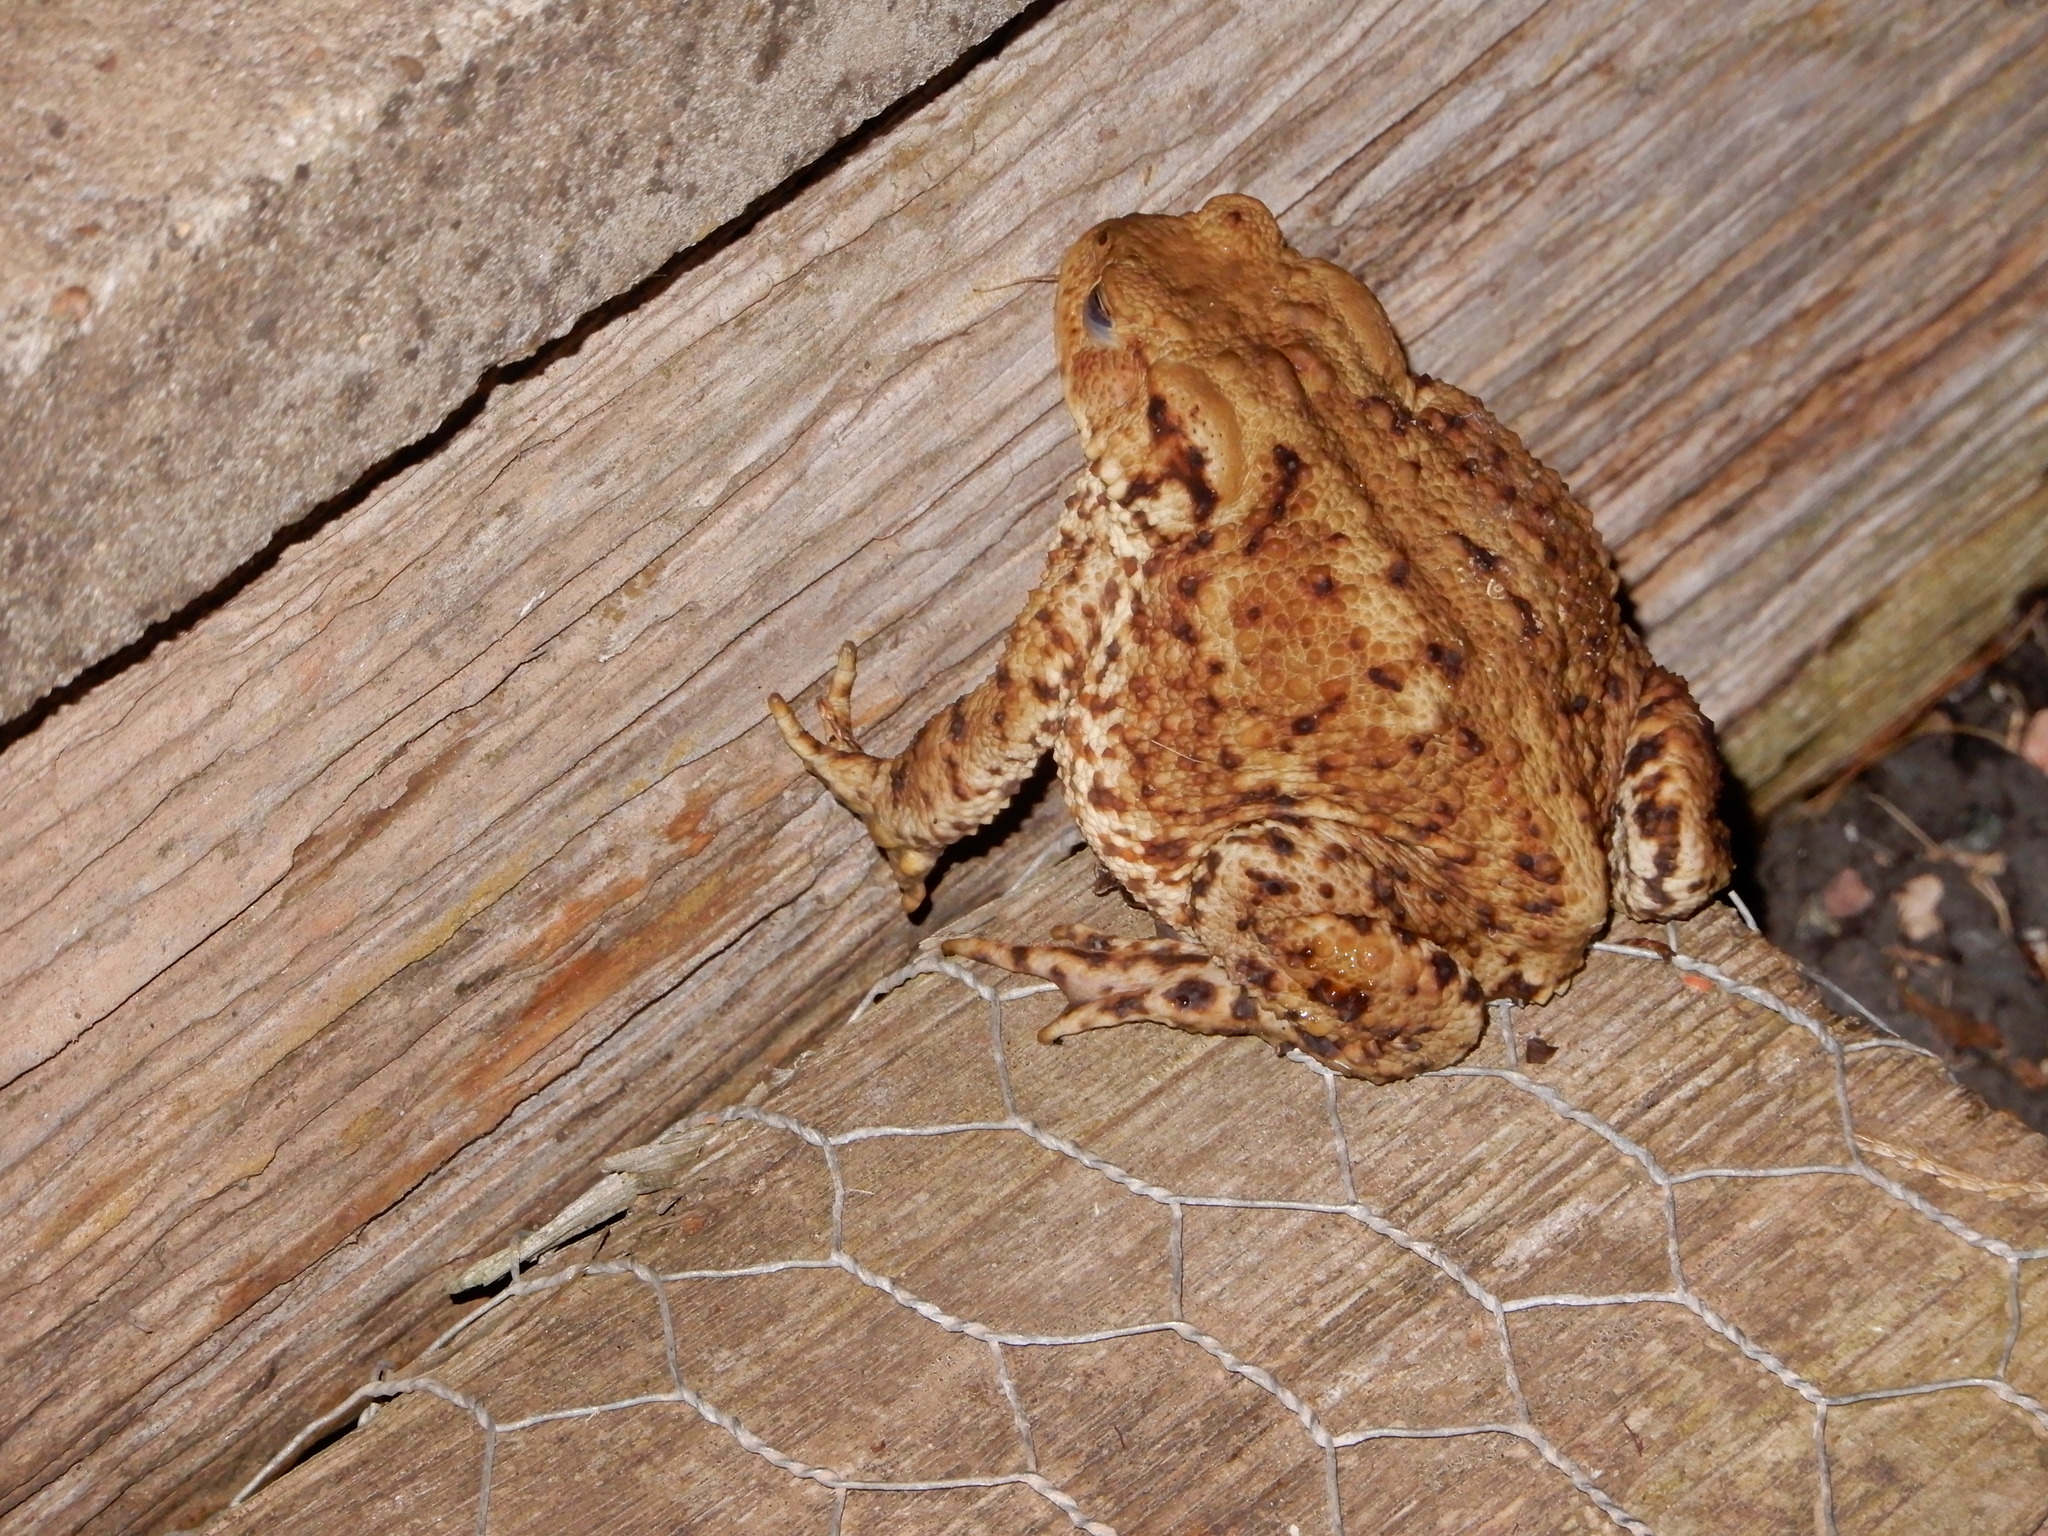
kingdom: Animalia
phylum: Chordata
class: Amphibia
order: Anura
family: Bufonidae
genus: Bufo
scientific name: Bufo bufo
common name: Common toad
